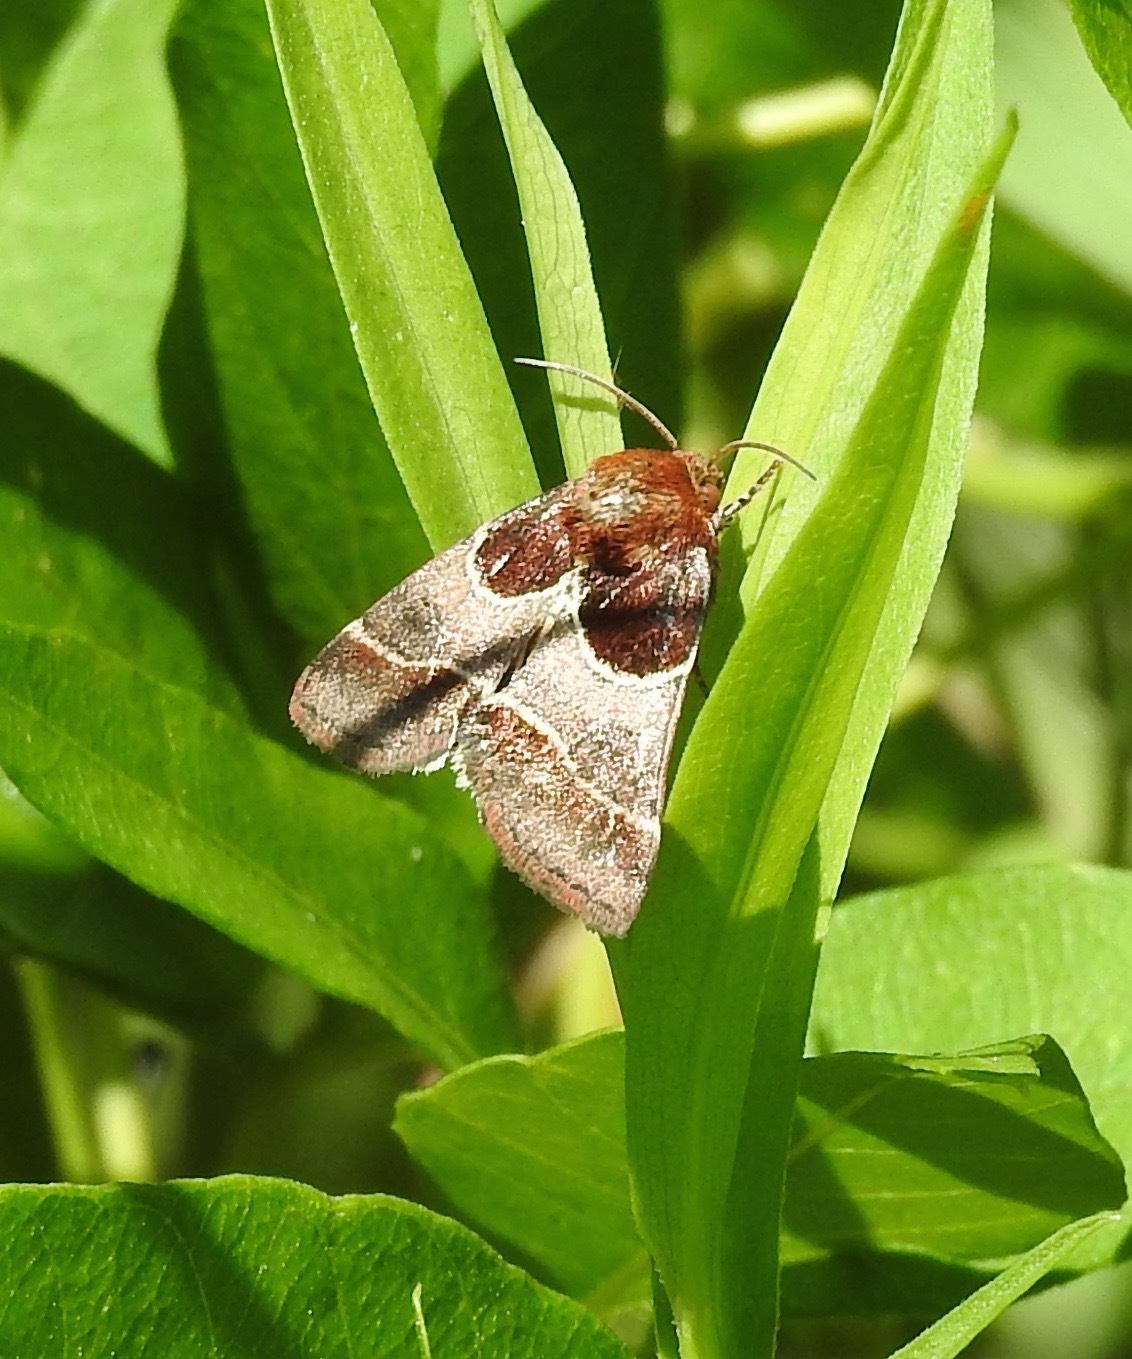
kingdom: Animalia
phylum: Arthropoda
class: Insecta
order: Lepidoptera
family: Noctuidae
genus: Schinia
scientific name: Schinia arcigera
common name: Arcigera flower moth
